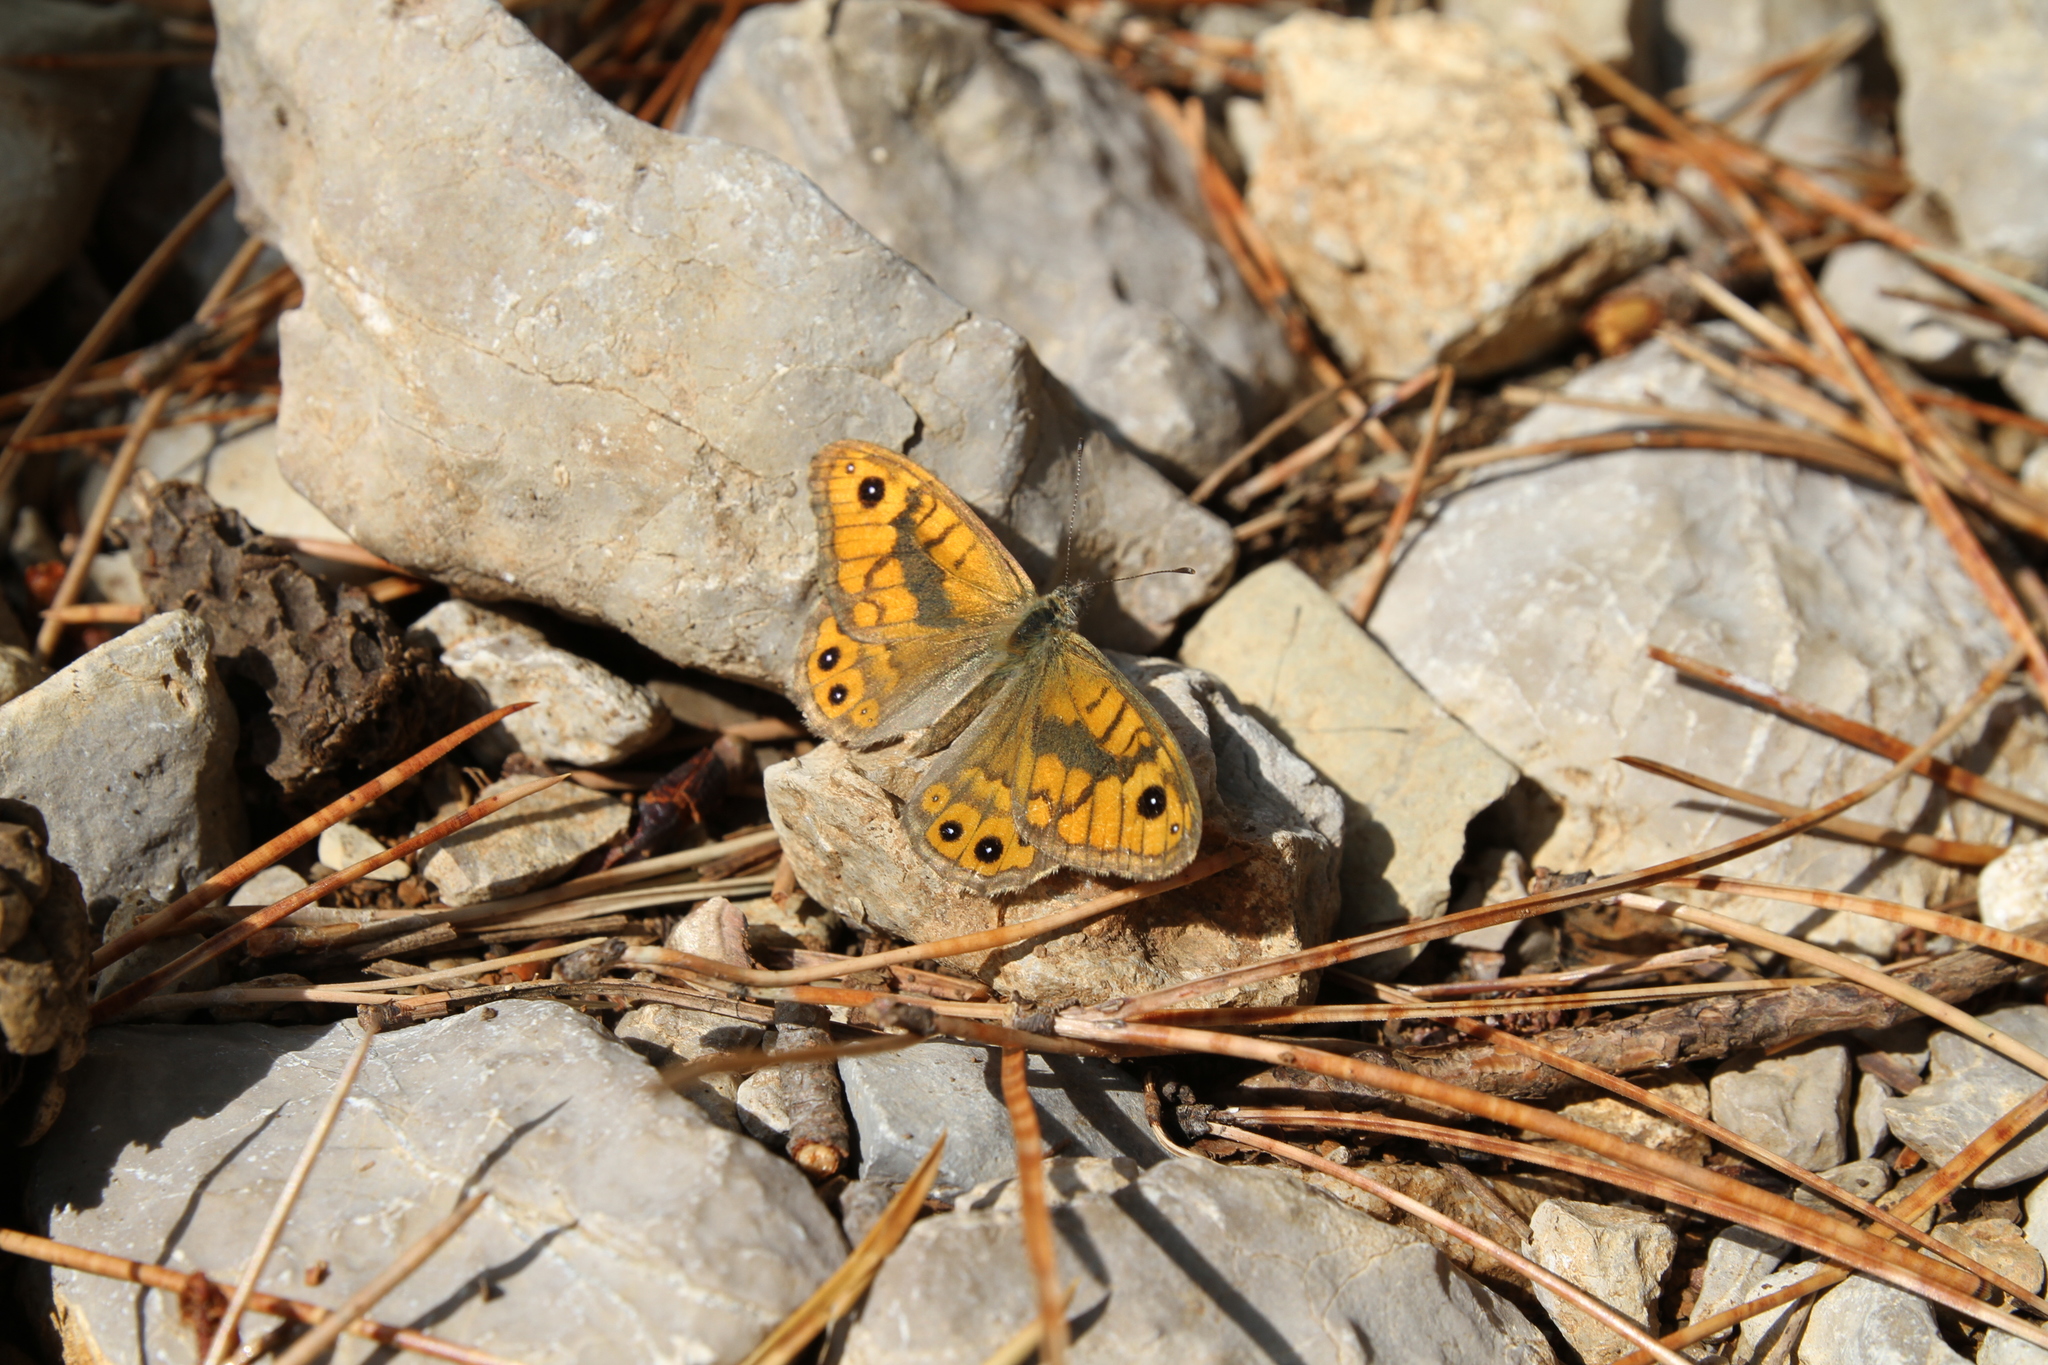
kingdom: Animalia
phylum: Arthropoda
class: Insecta
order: Lepidoptera
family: Nymphalidae
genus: Pararge
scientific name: Pararge Lasiommata megera
